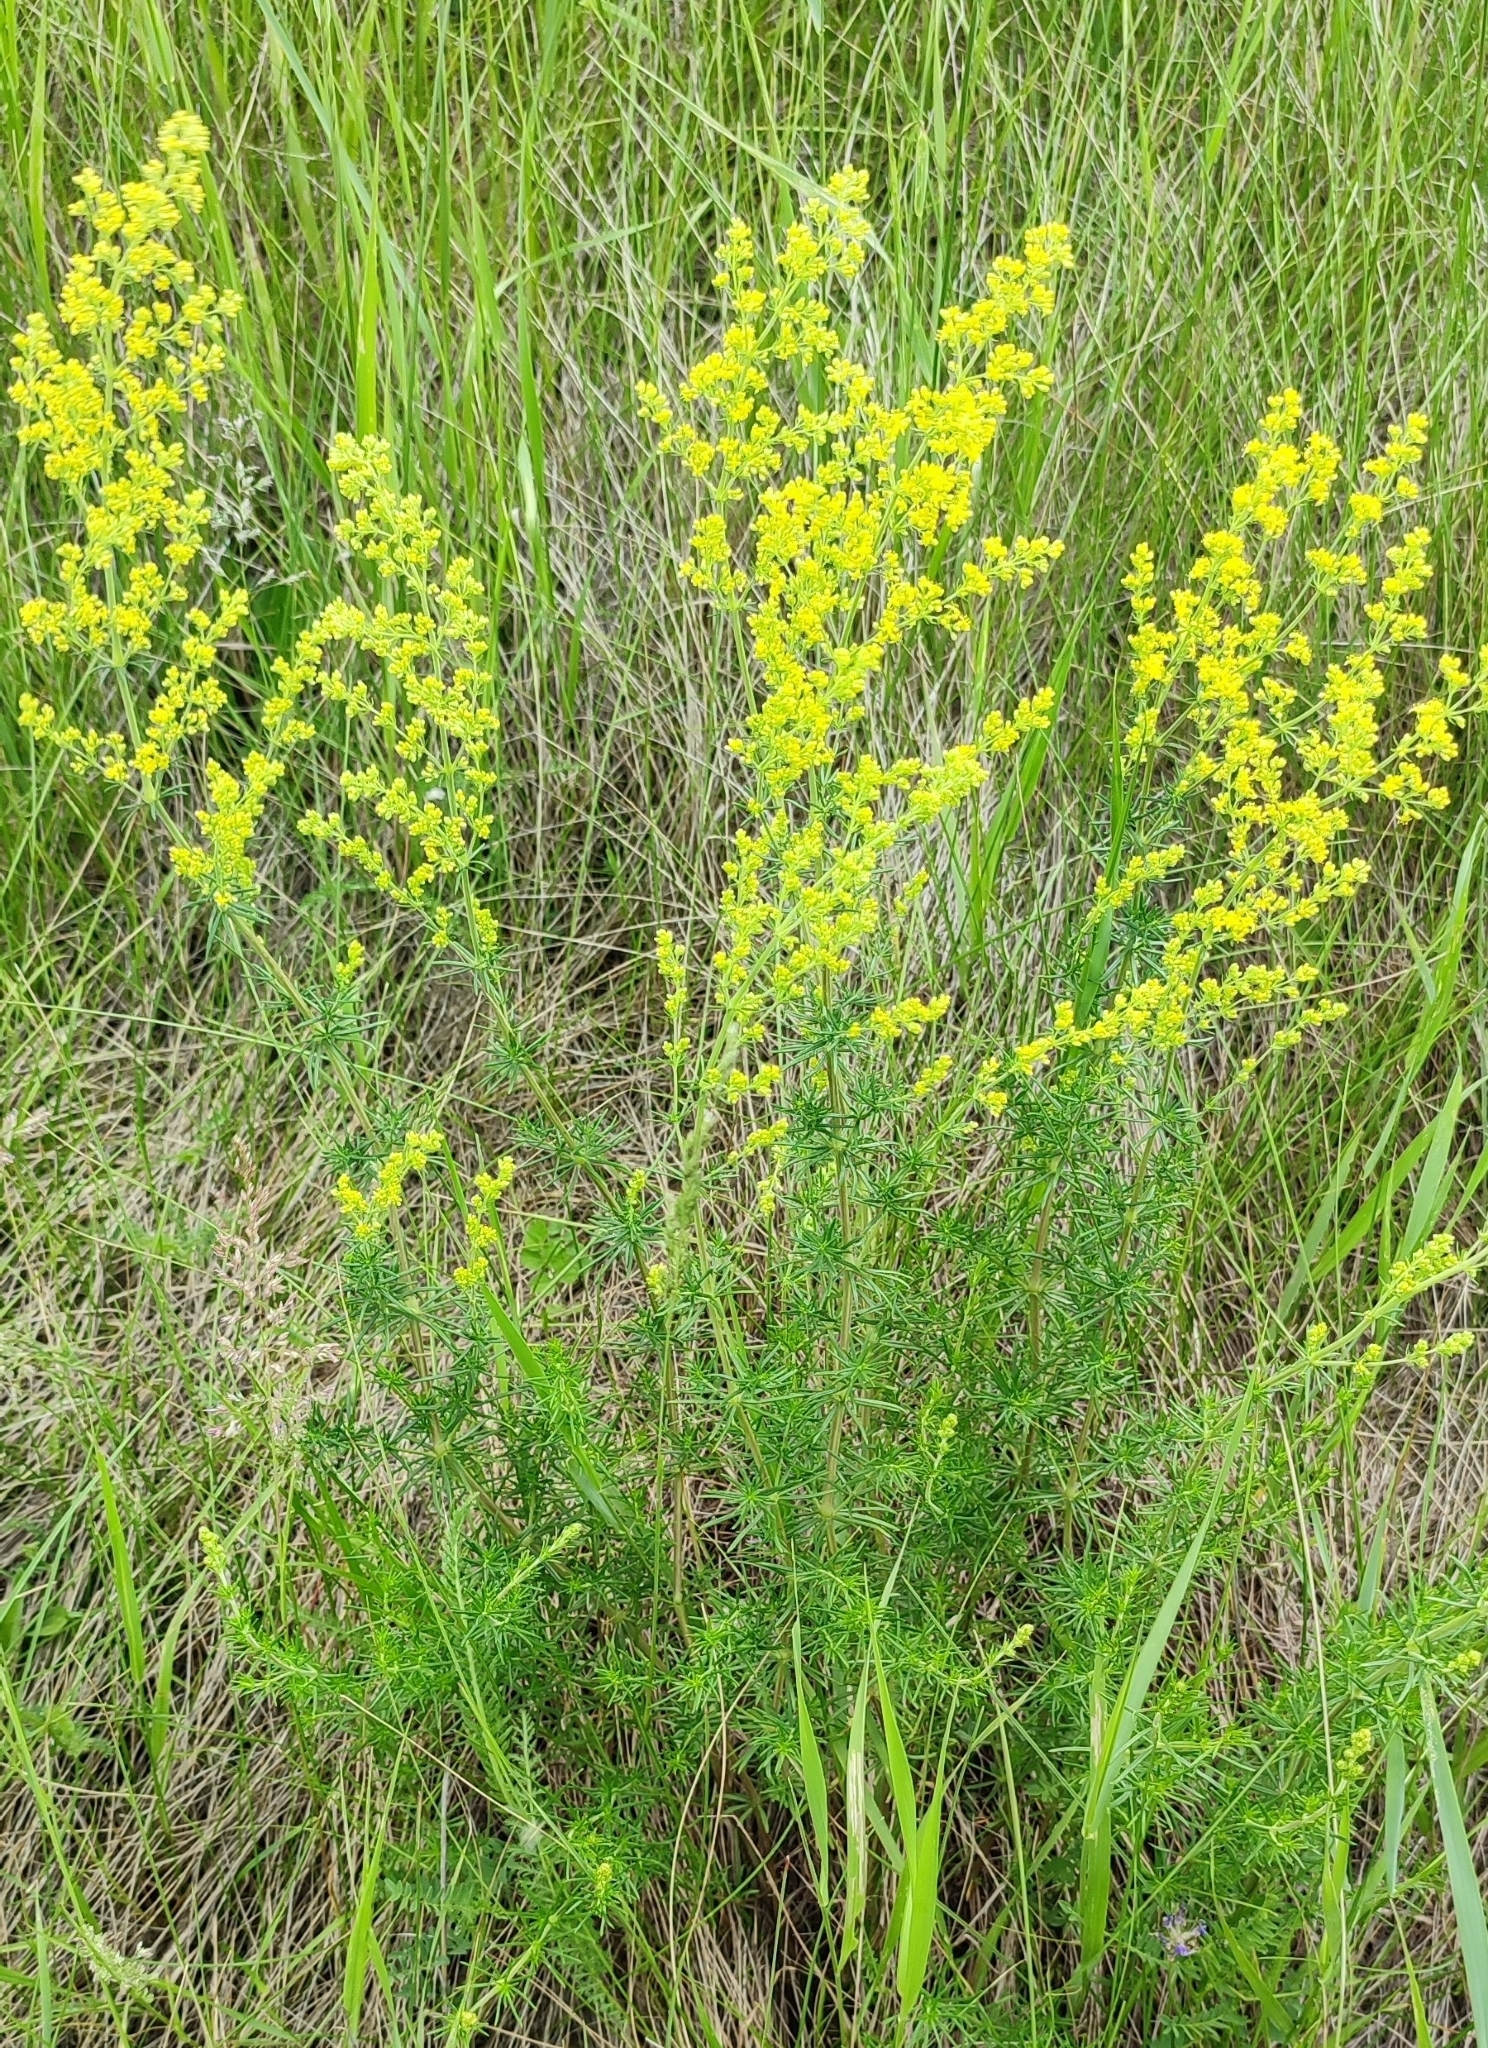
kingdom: Plantae
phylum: Tracheophyta
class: Magnoliopsida
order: Gentianales
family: Rubiaceae
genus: Galium
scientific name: Galium verum
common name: Lady's bedstraw
